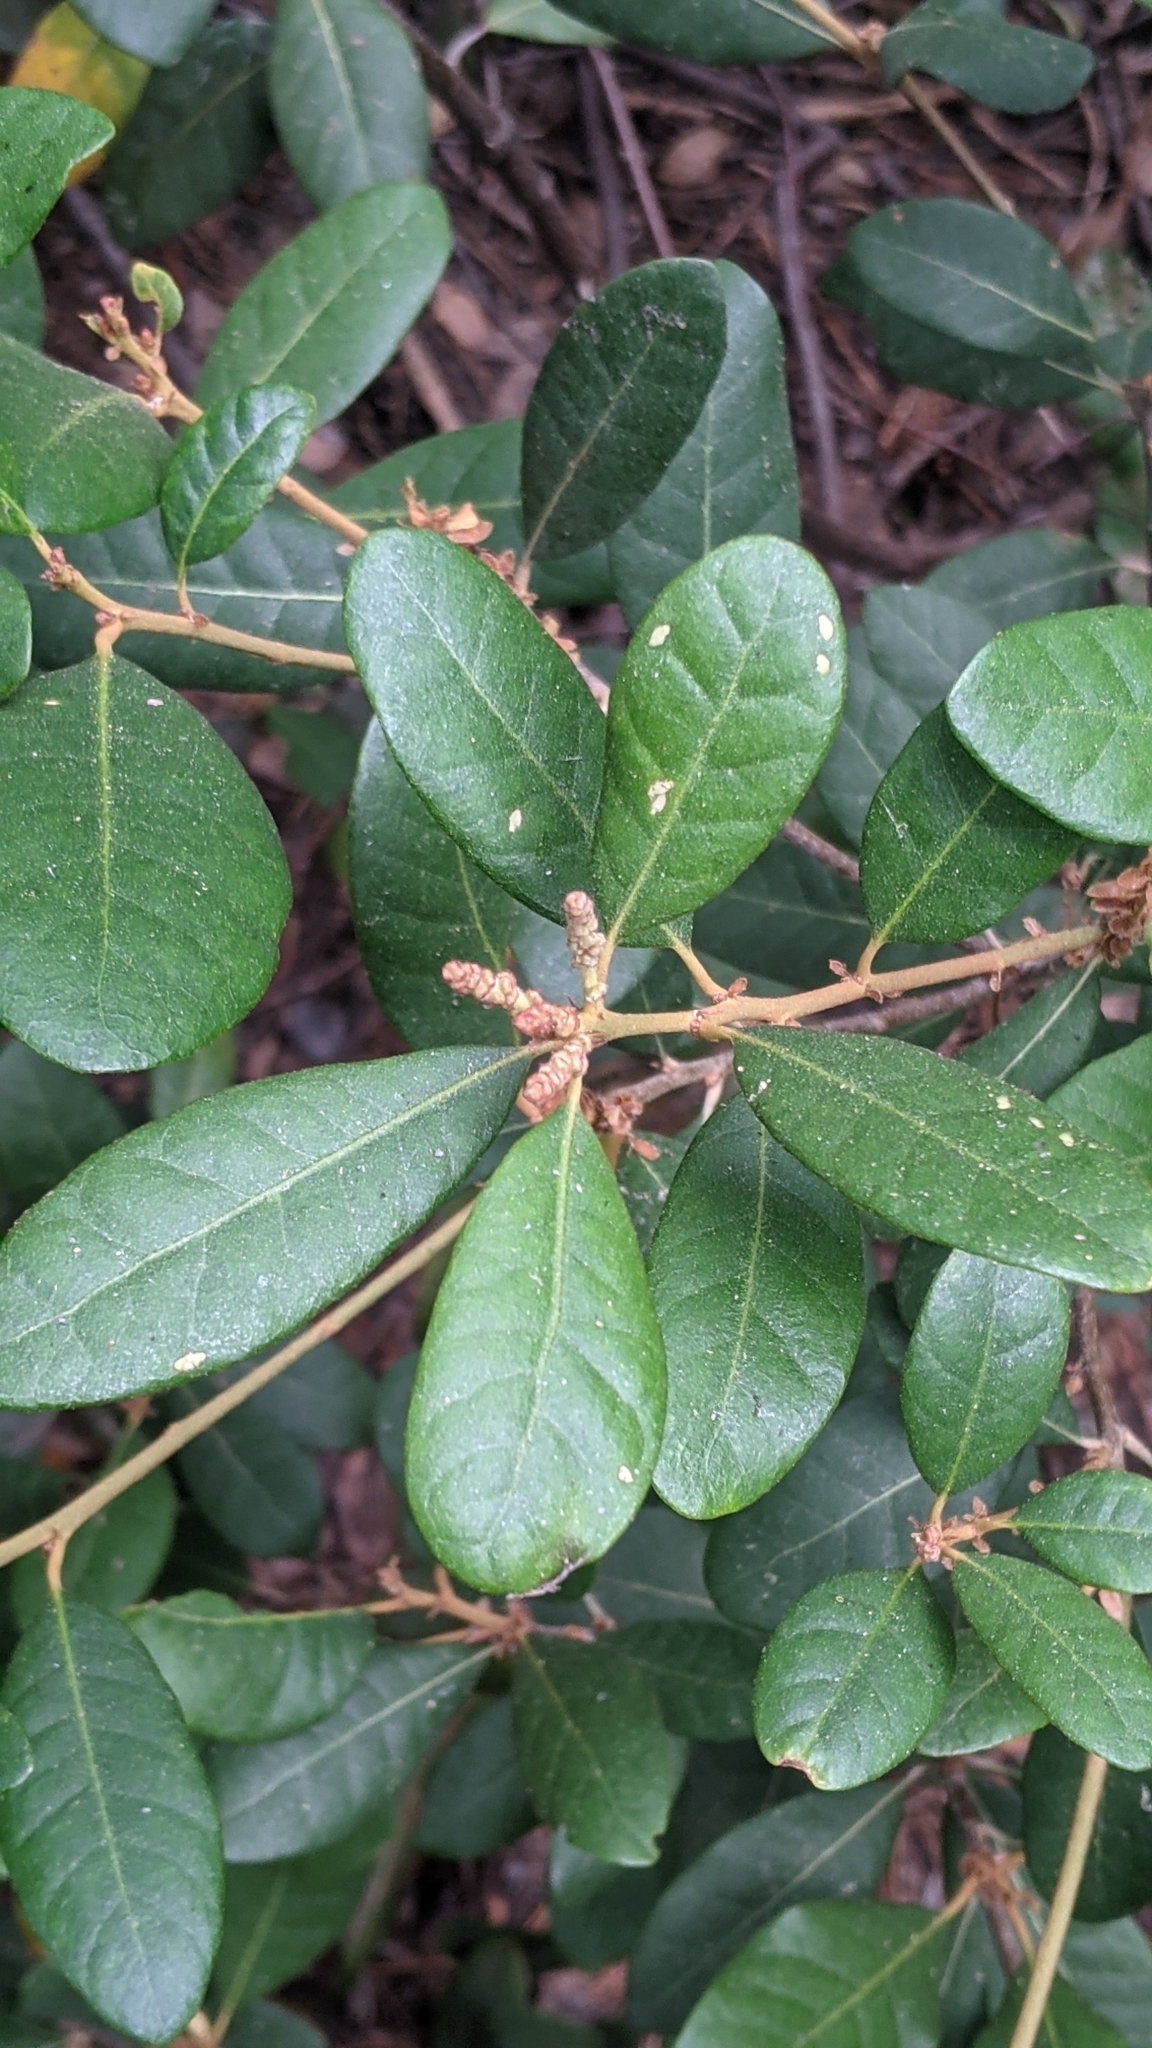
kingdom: Plantae
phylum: Tracheophyta
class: Magnoliopsida
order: Fagales
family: Fagaceae
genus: Chrysolepis
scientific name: Chrysolepis sempervirens
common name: Bush chinquapin
